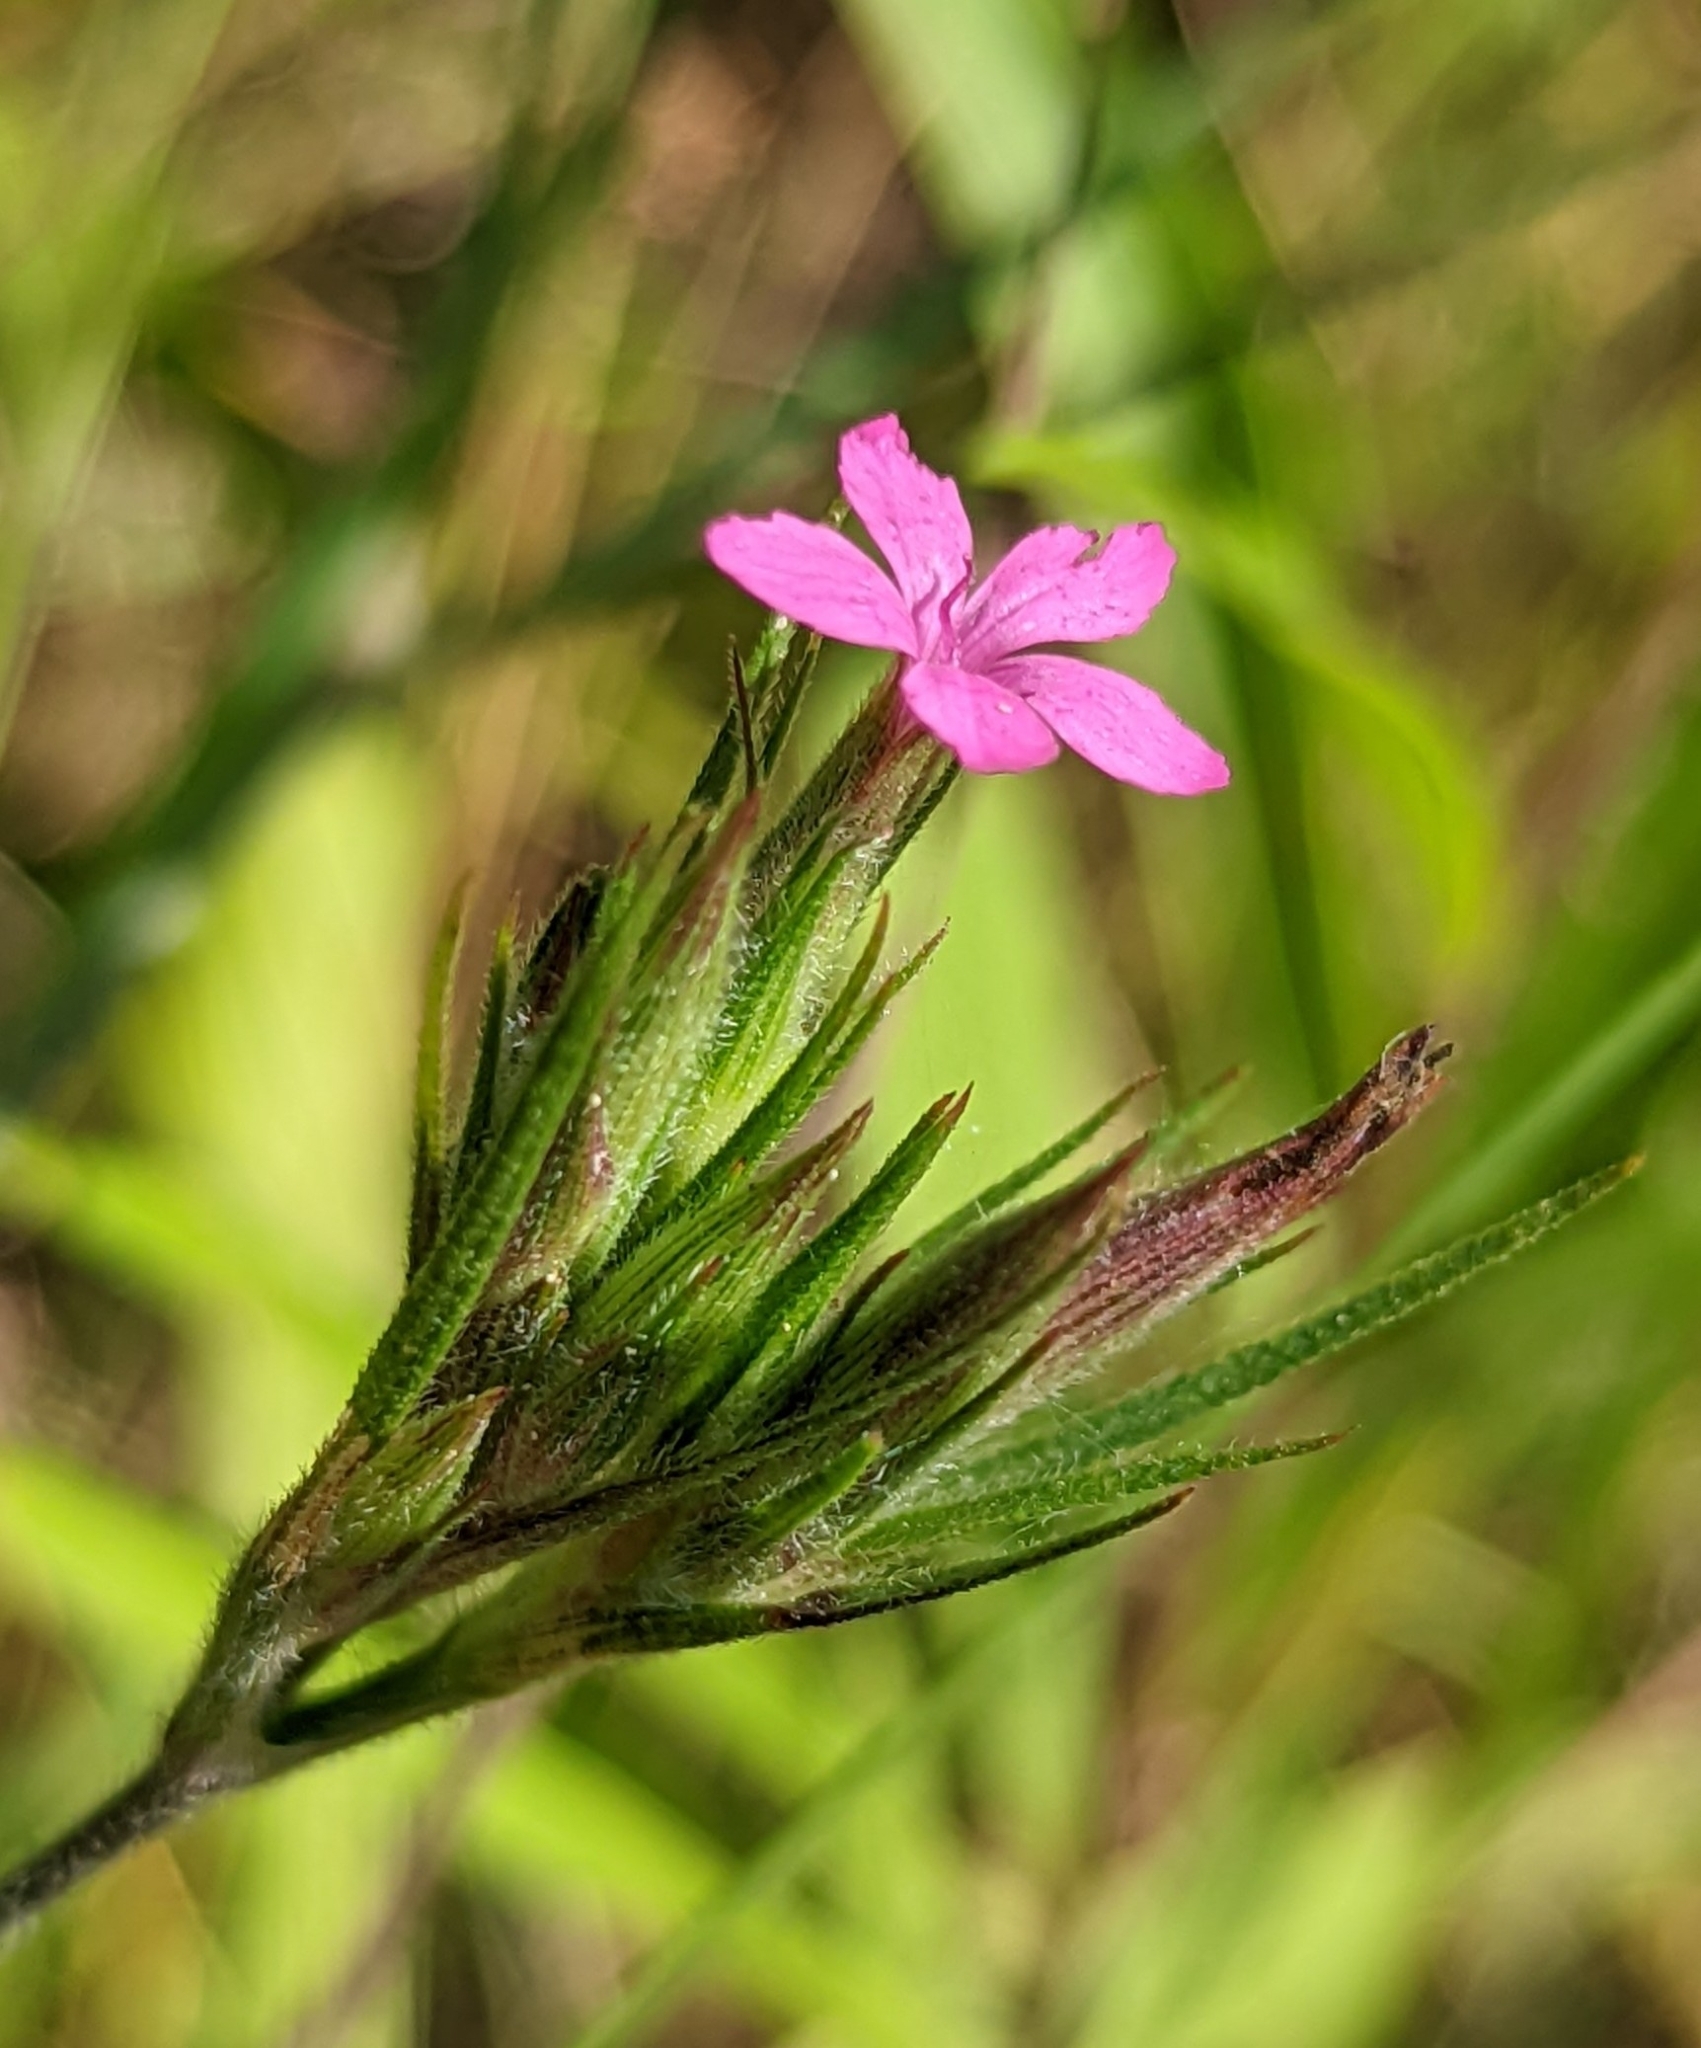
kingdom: Plantae
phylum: Tracheophyta
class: Magnoliopsida
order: Caryophyllales
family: Caryophyllaceae
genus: Dianthus
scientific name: Dianthus armeria
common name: Deptford pink
